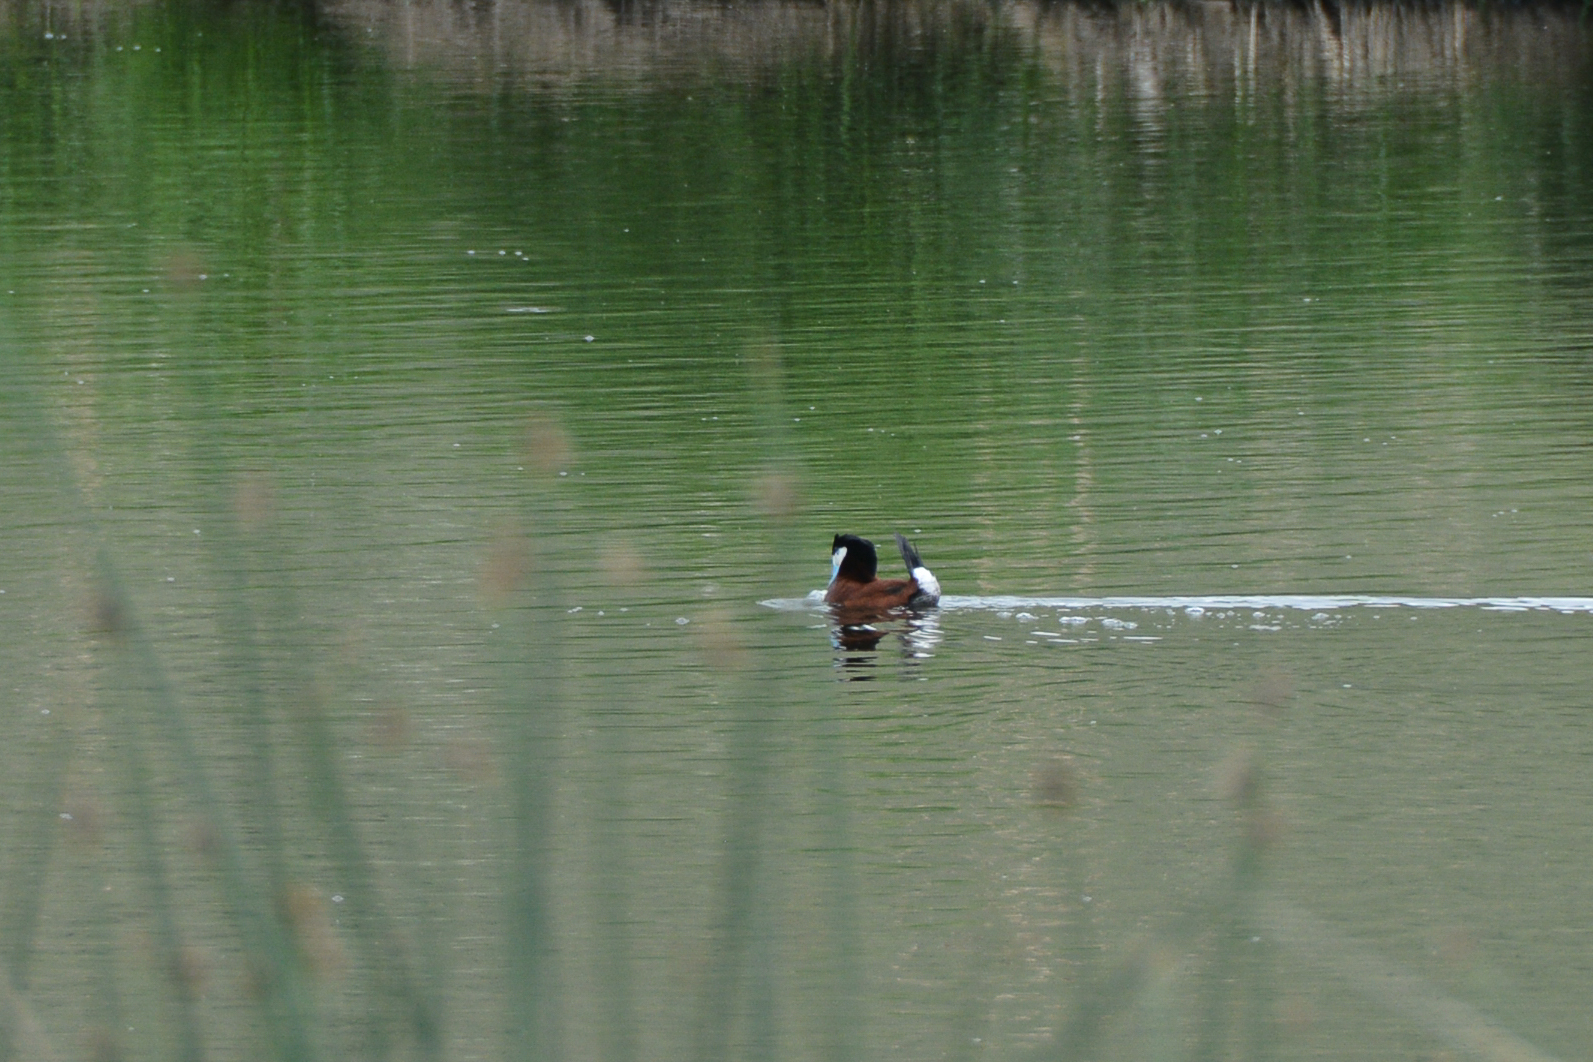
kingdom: Animalia
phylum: Chordata
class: Aves
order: Anseriformes
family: Anatidae
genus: Oxyura
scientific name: Oxyura jamaicensis
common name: Ruddy duck
